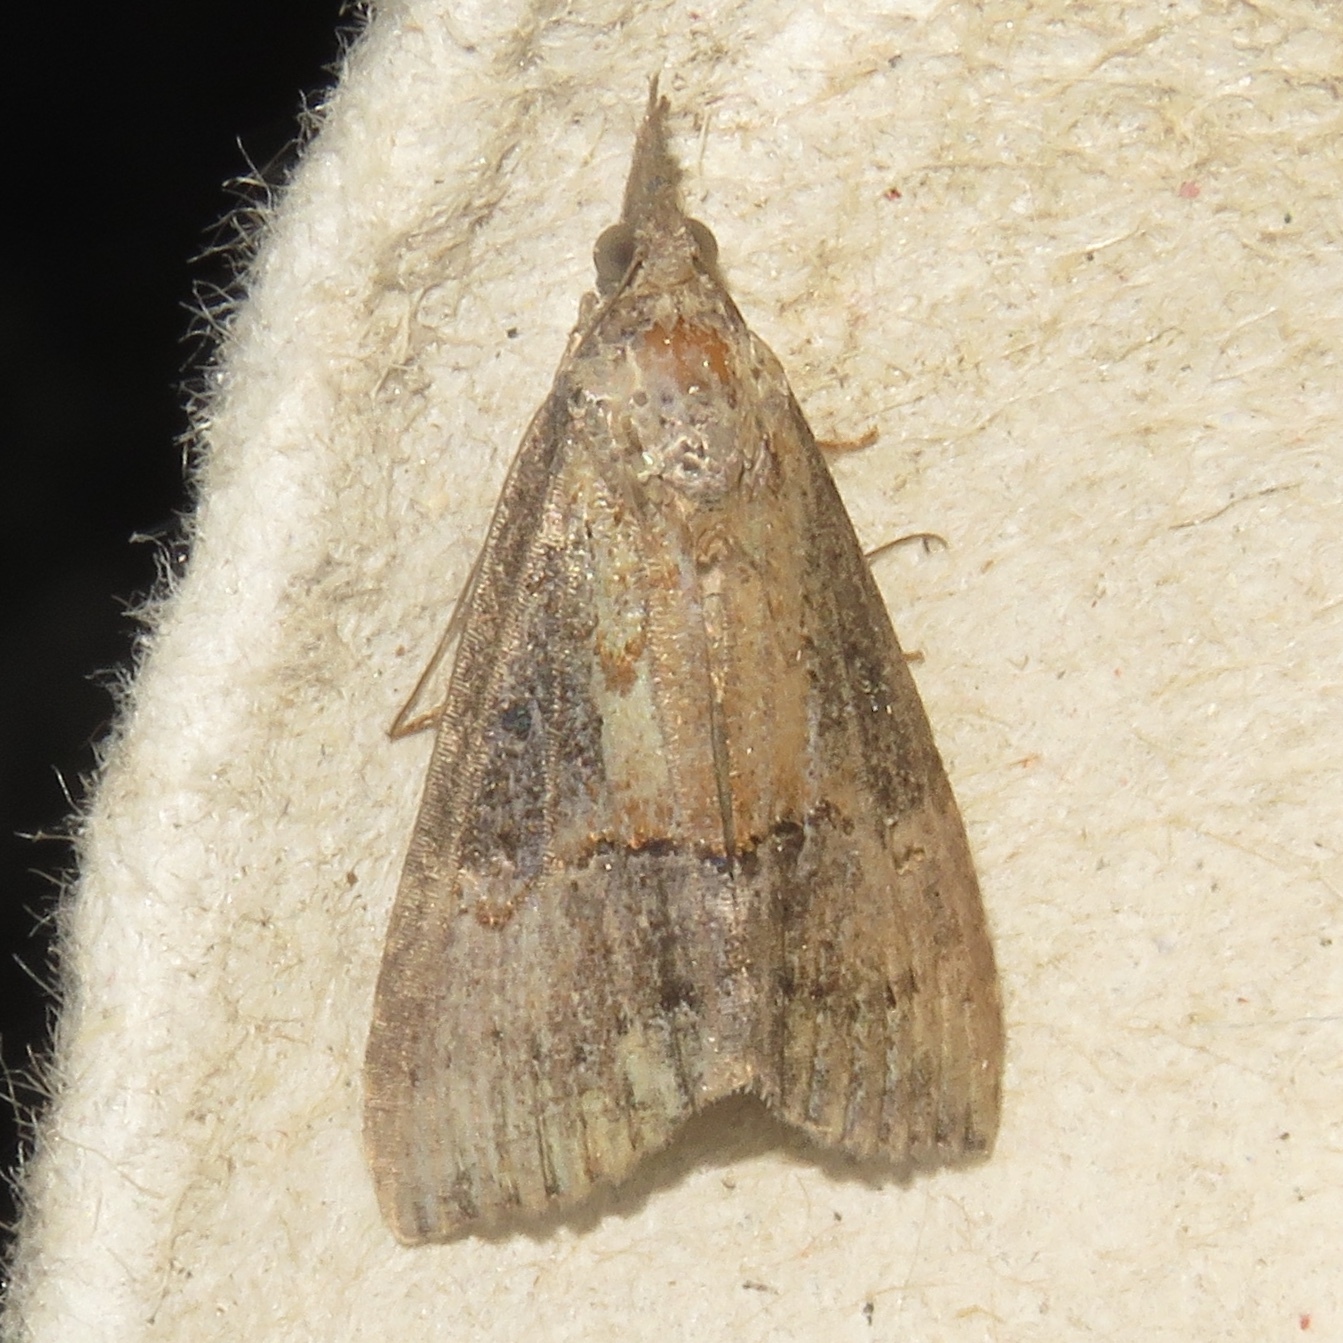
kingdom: Animalia
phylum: Arthropoda
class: Insecta
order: Lepidoptera
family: Erebidae
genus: Hypena
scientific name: Hypena scabra
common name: Green cloverworm
